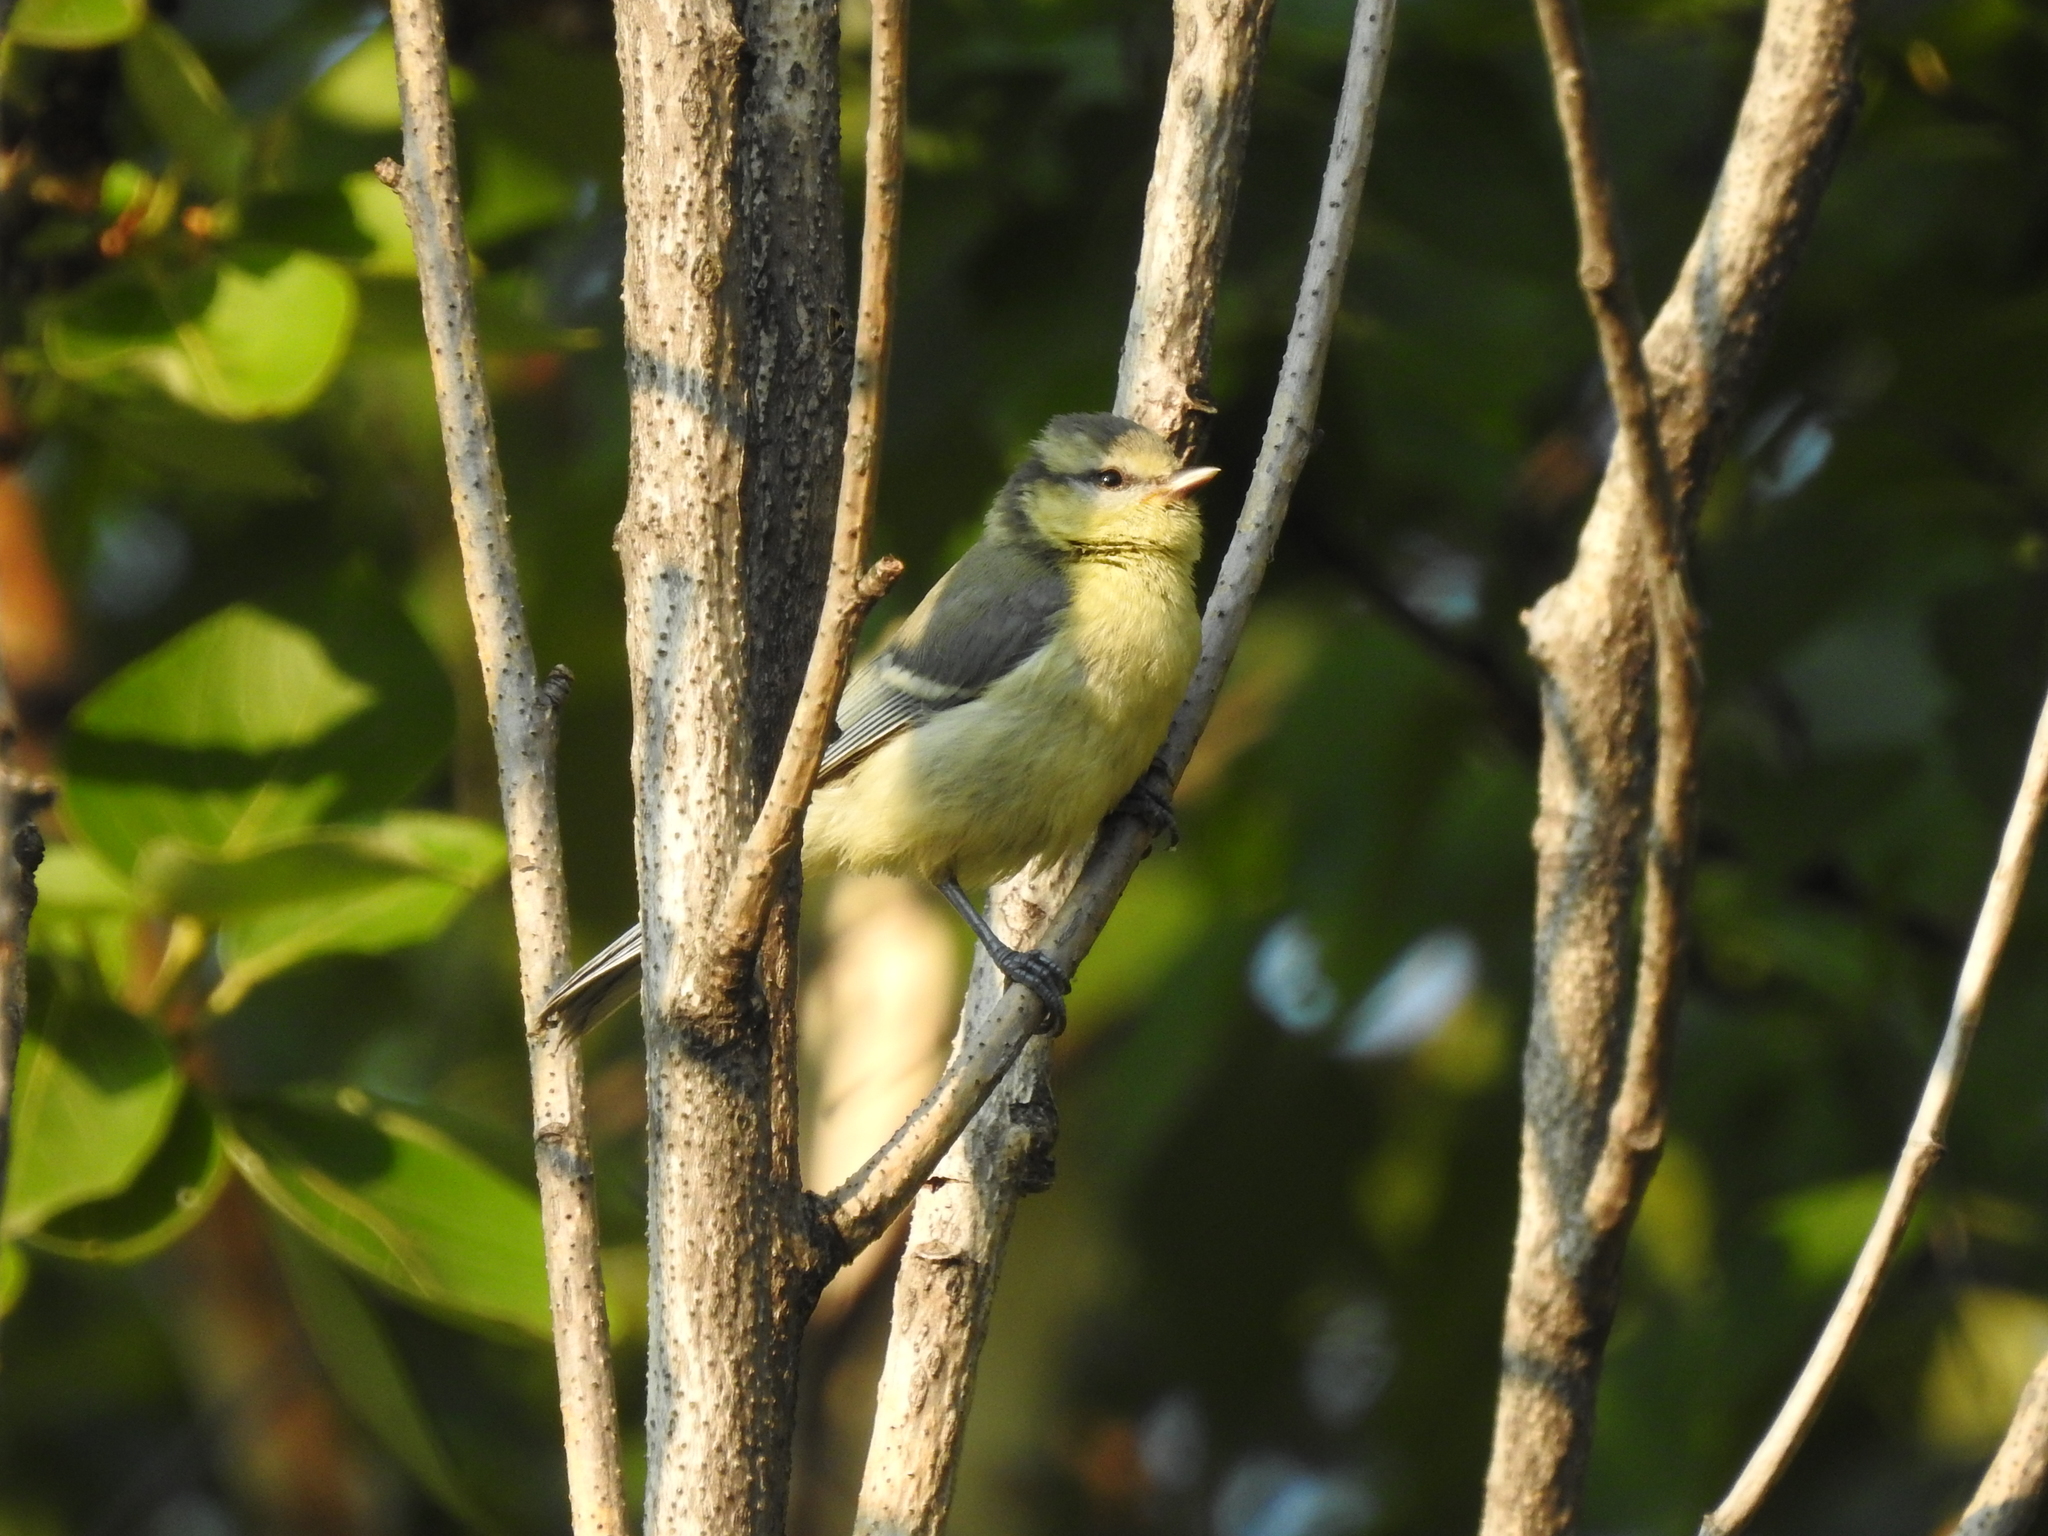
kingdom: Animalia
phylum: Chordata
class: Aves
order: Passeriformes
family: Paridae
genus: Cyanistes
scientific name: Cyanistes caeruleus
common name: Eurasian blue tit
